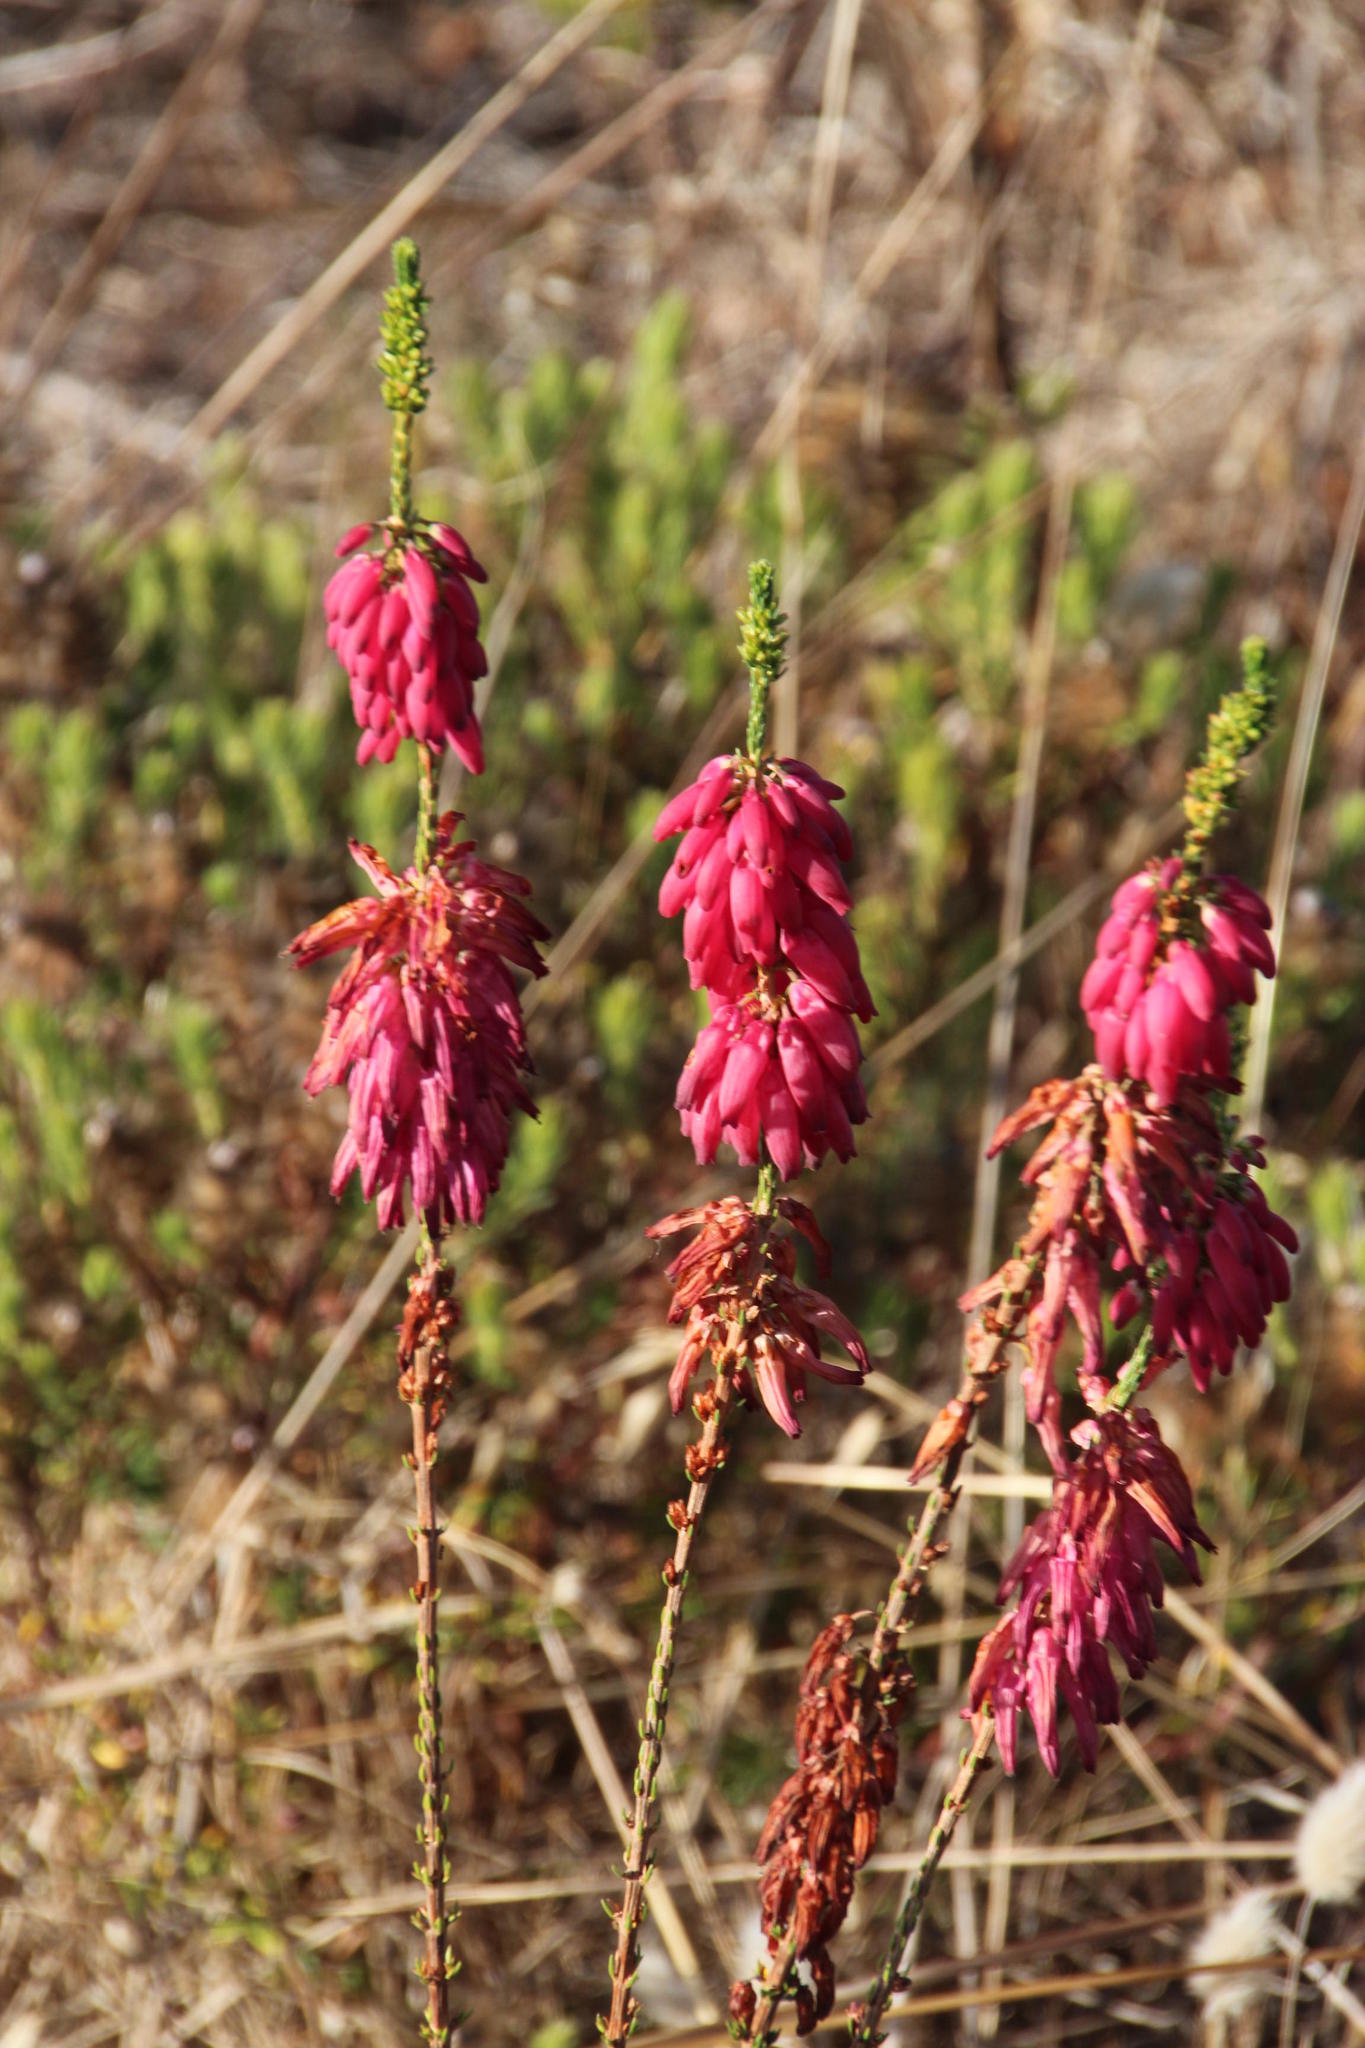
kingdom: Plantae
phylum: Tracheophyta
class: Magnoliopsida
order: Ericales
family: Ericaceae
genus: Erica
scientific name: Erica mammosa
